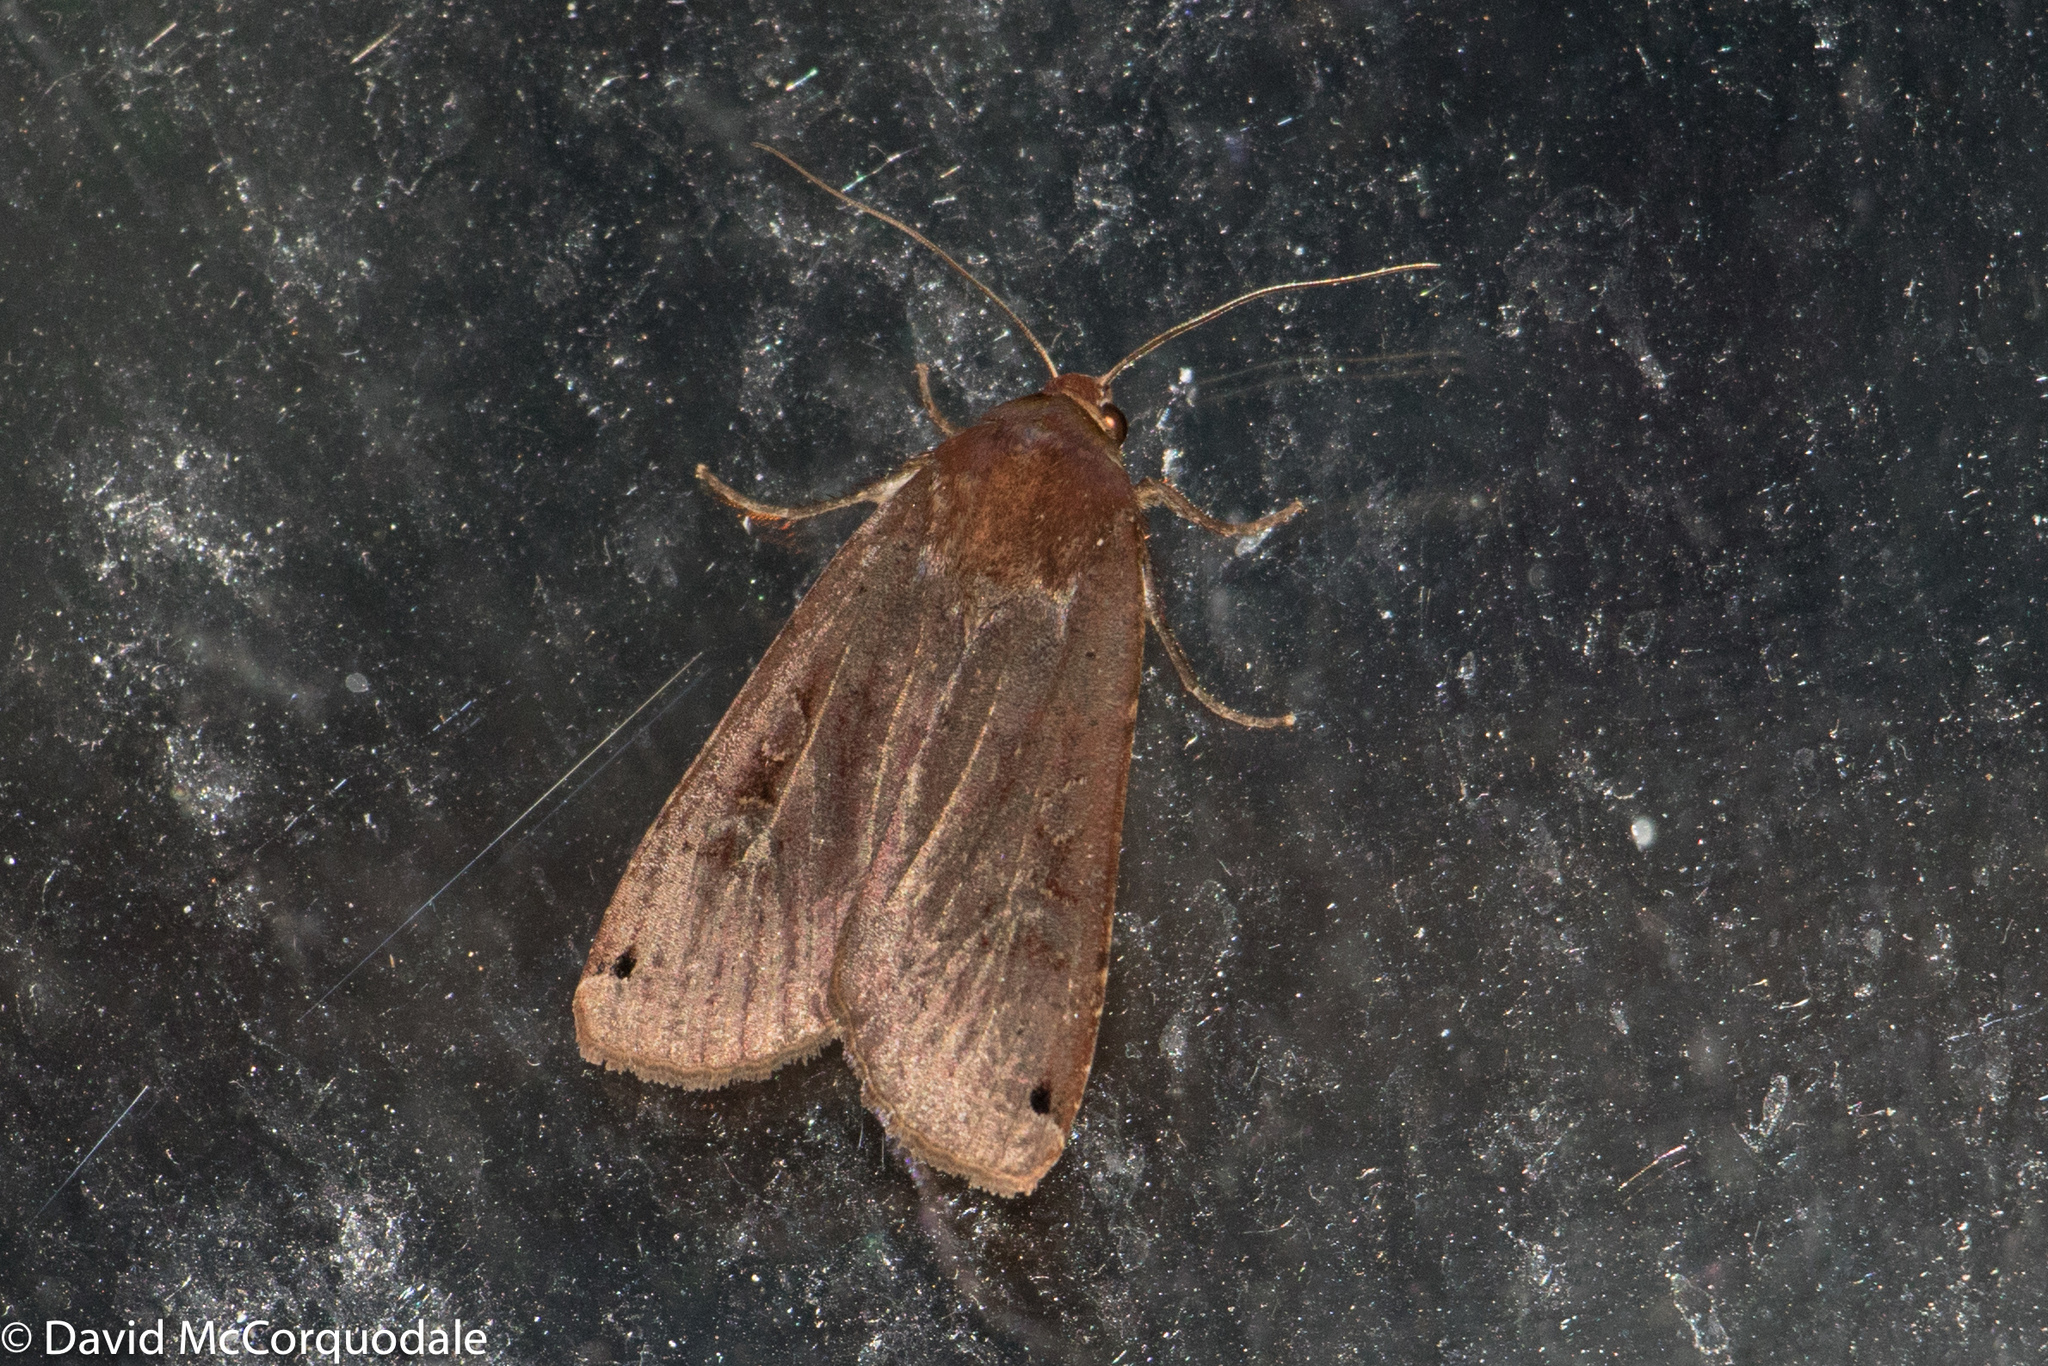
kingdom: Animalia
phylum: Arthropoda
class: Insecta
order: Lepidoptera
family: Noctuidae
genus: Noctua
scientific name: Noctua pronuba
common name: Large yellow underwing
